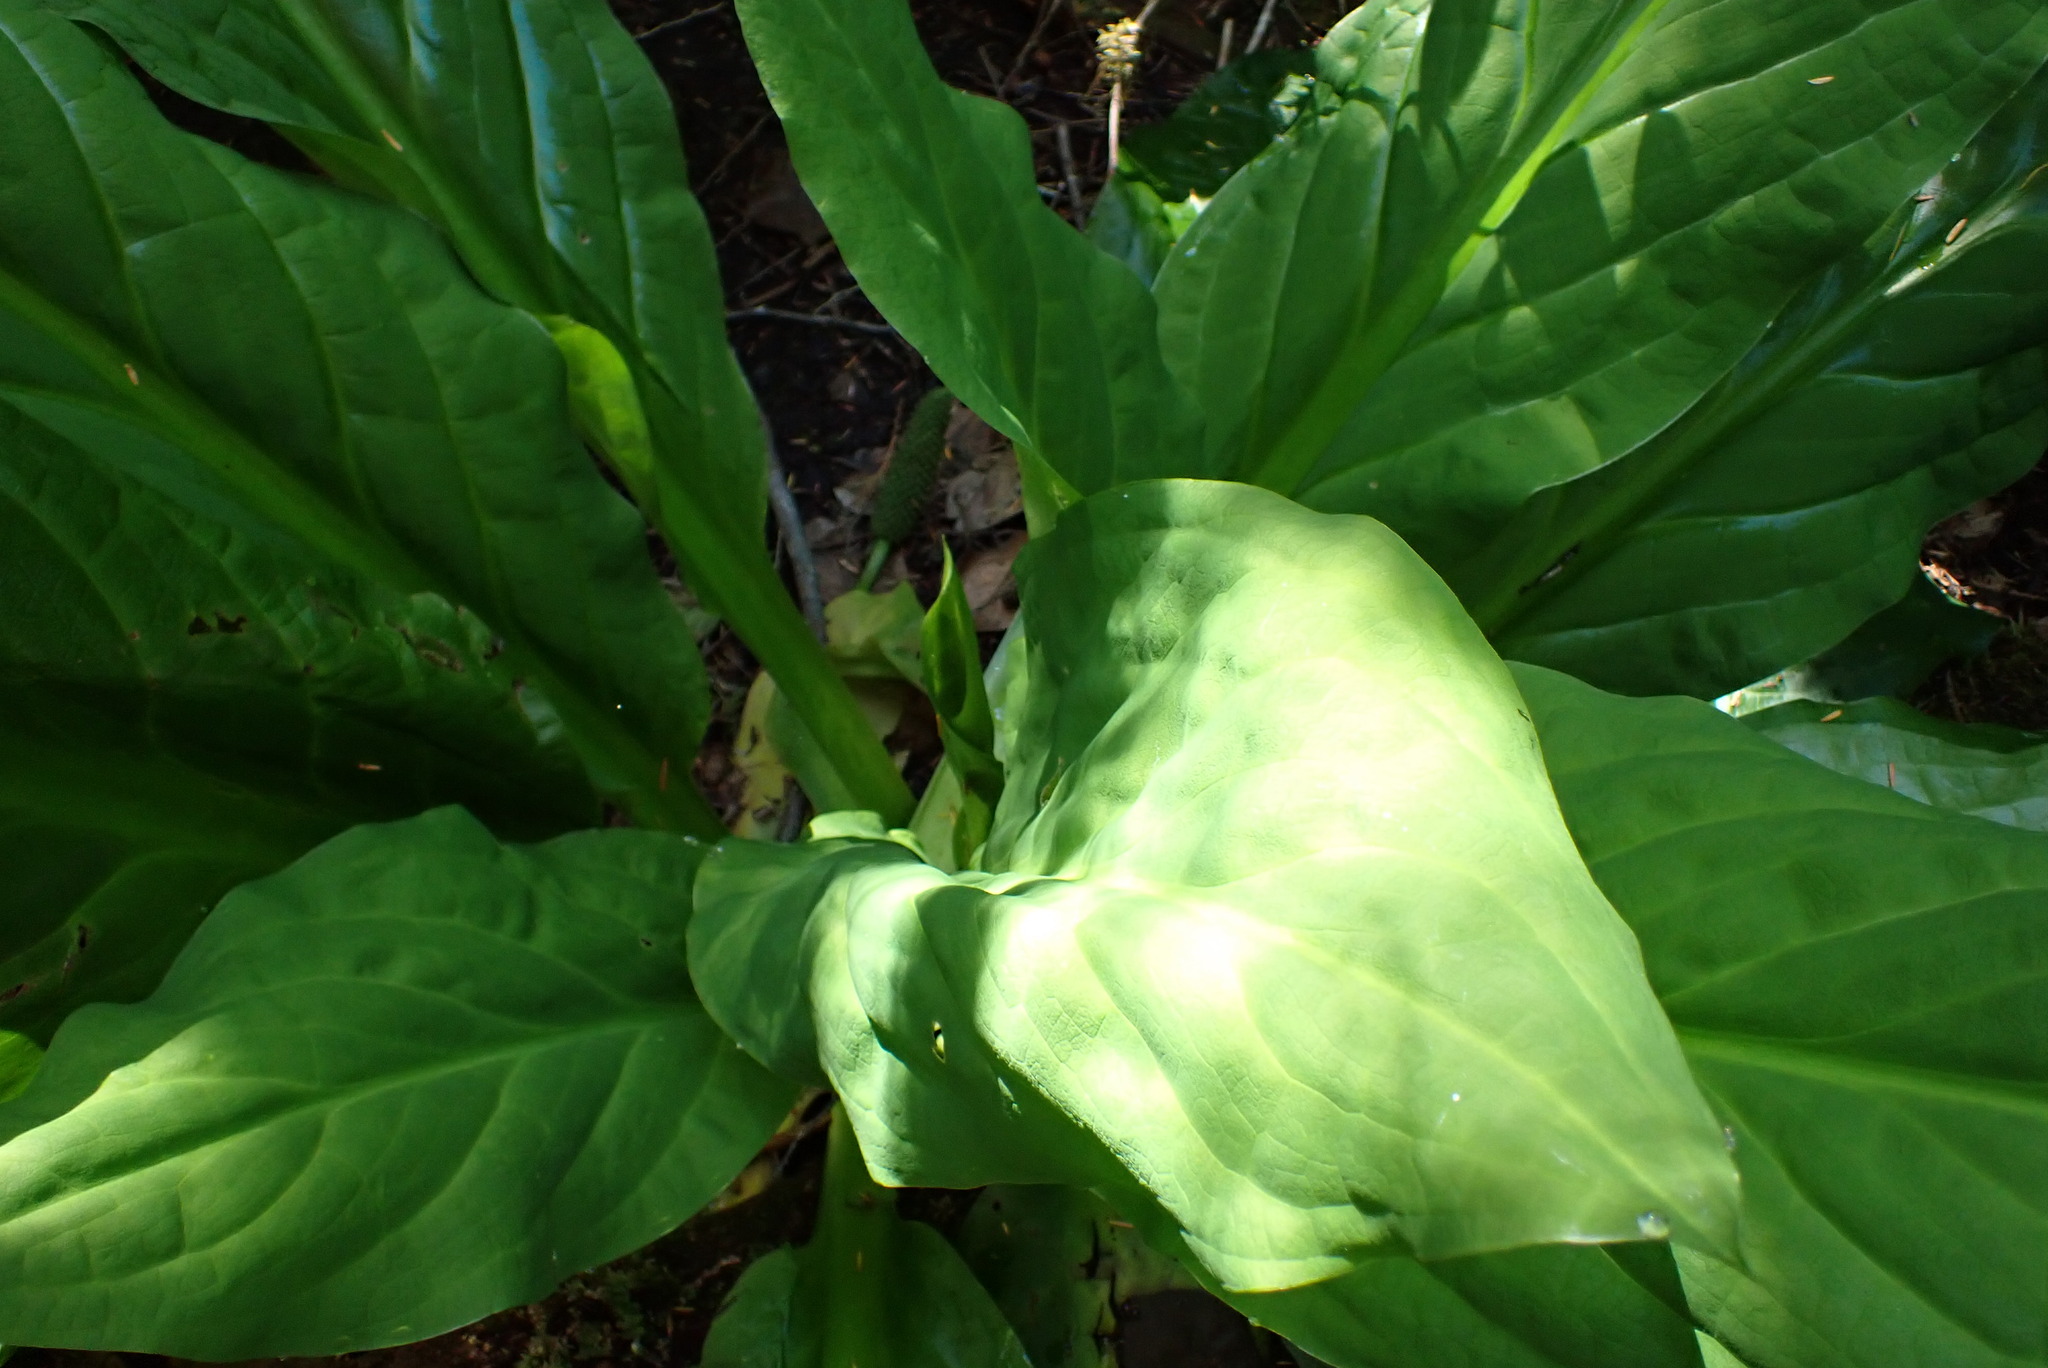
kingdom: Plantae
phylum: Tracheophyta
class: Liliopsida
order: Alismatales
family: Araceae
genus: Lysichiton
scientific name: Lysichiton americanus
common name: American skunk cabbage
